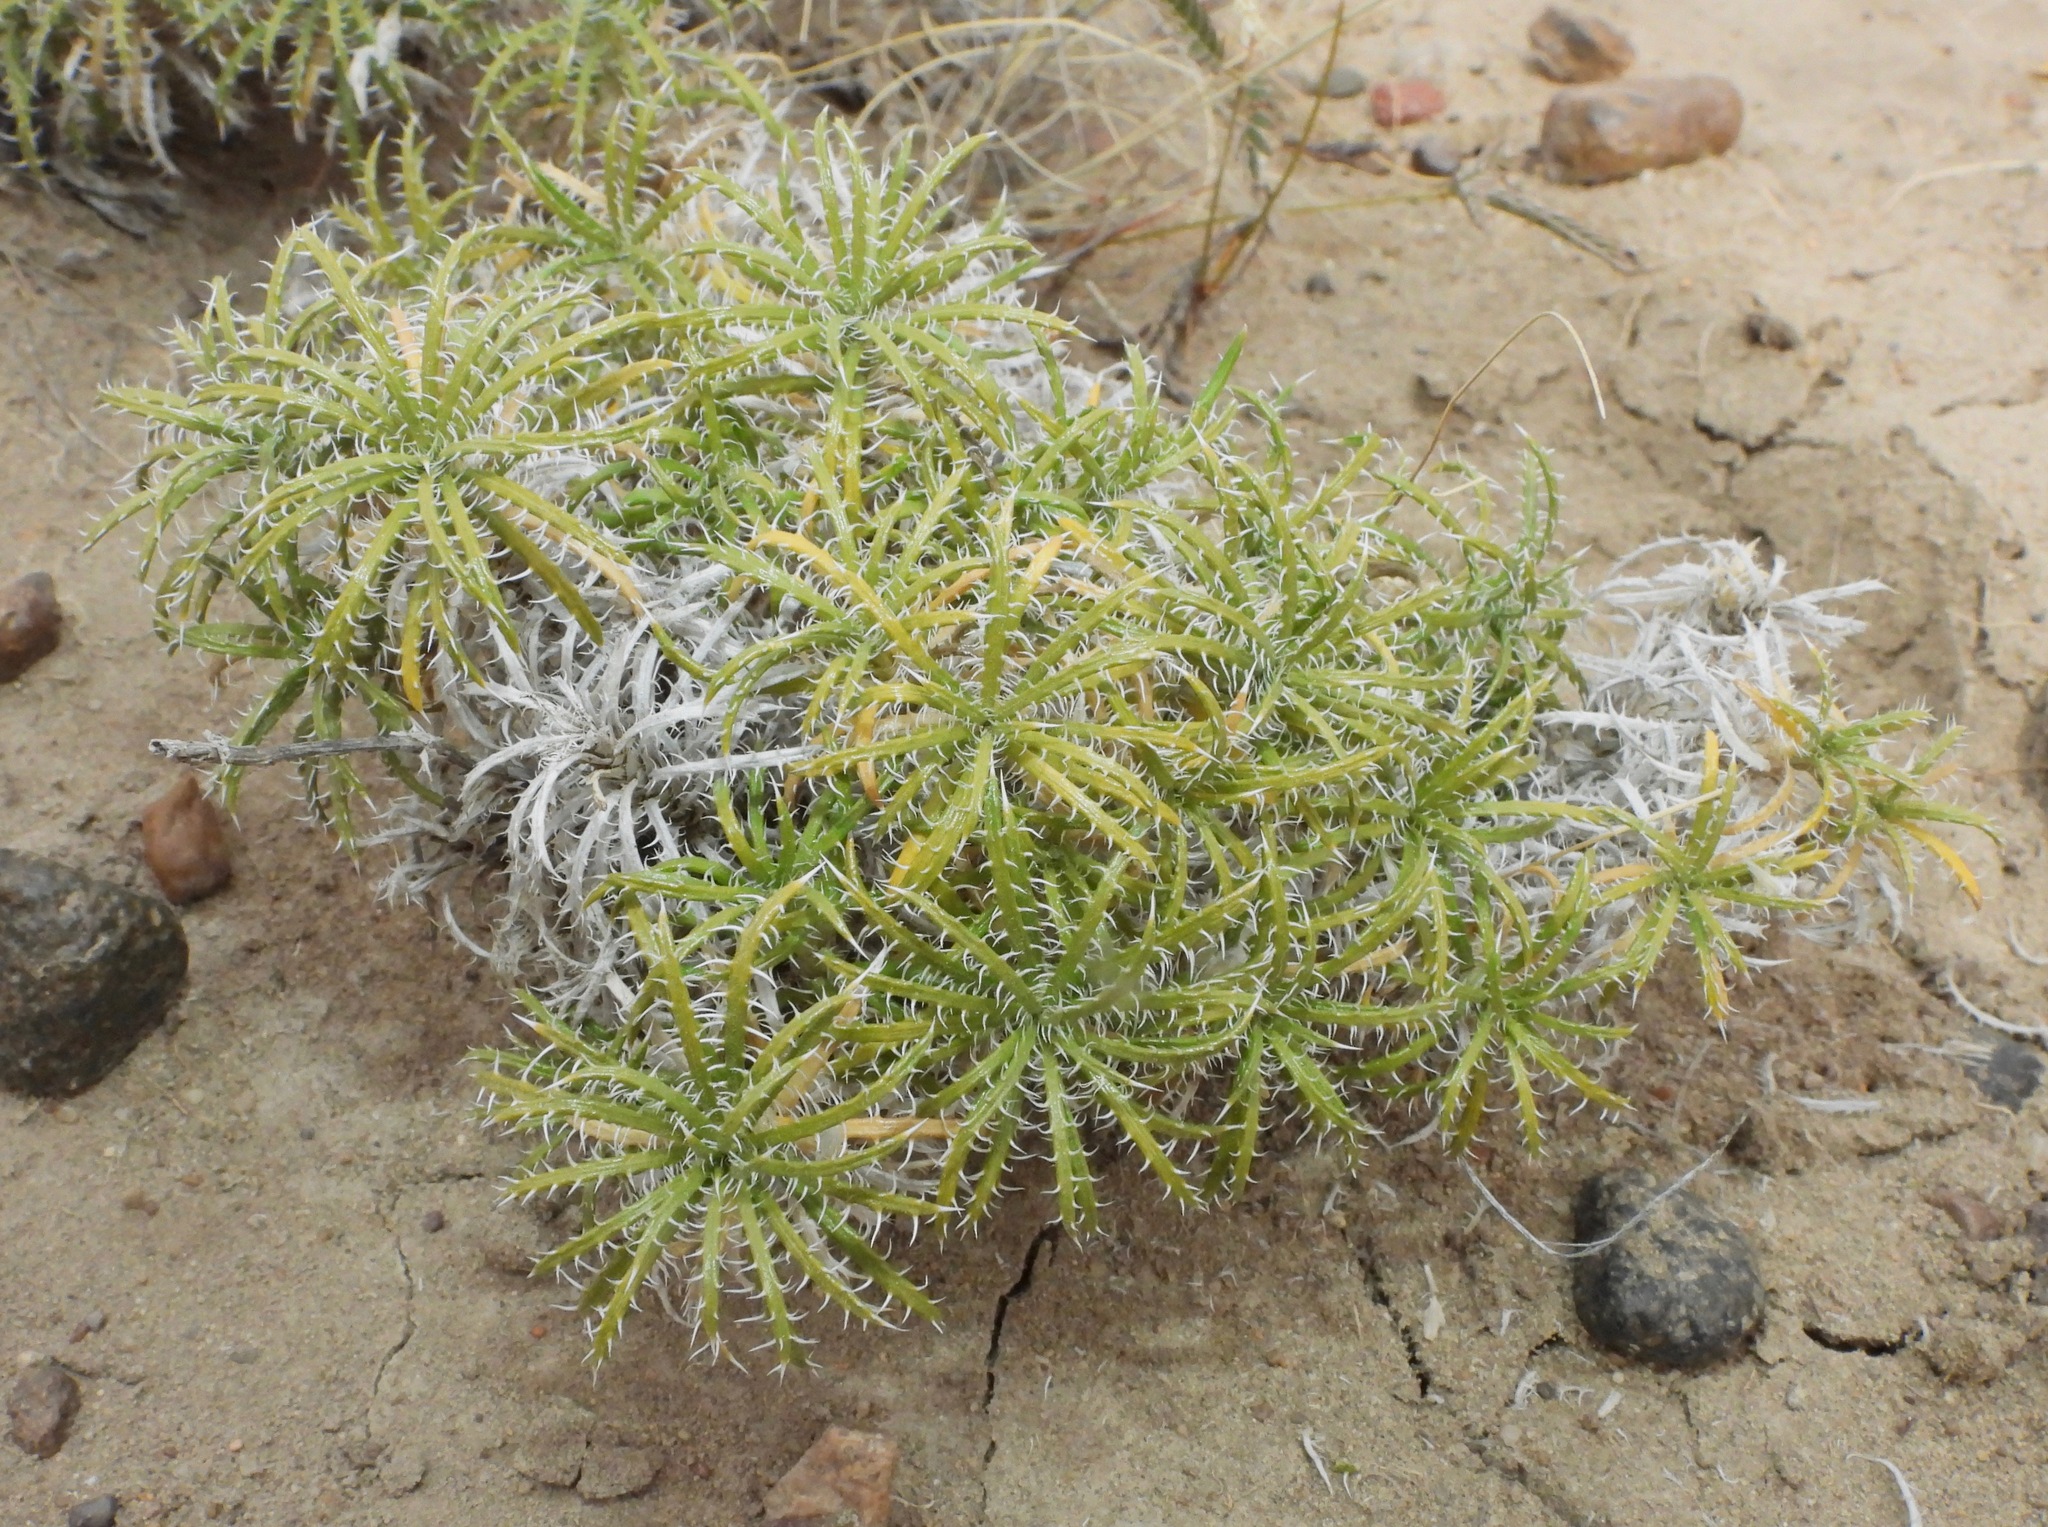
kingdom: Plantae
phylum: Tracheophyta
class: Magnoliopsida
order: Asterales
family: Asteraceae
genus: Perezia
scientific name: Perezia recurvata
